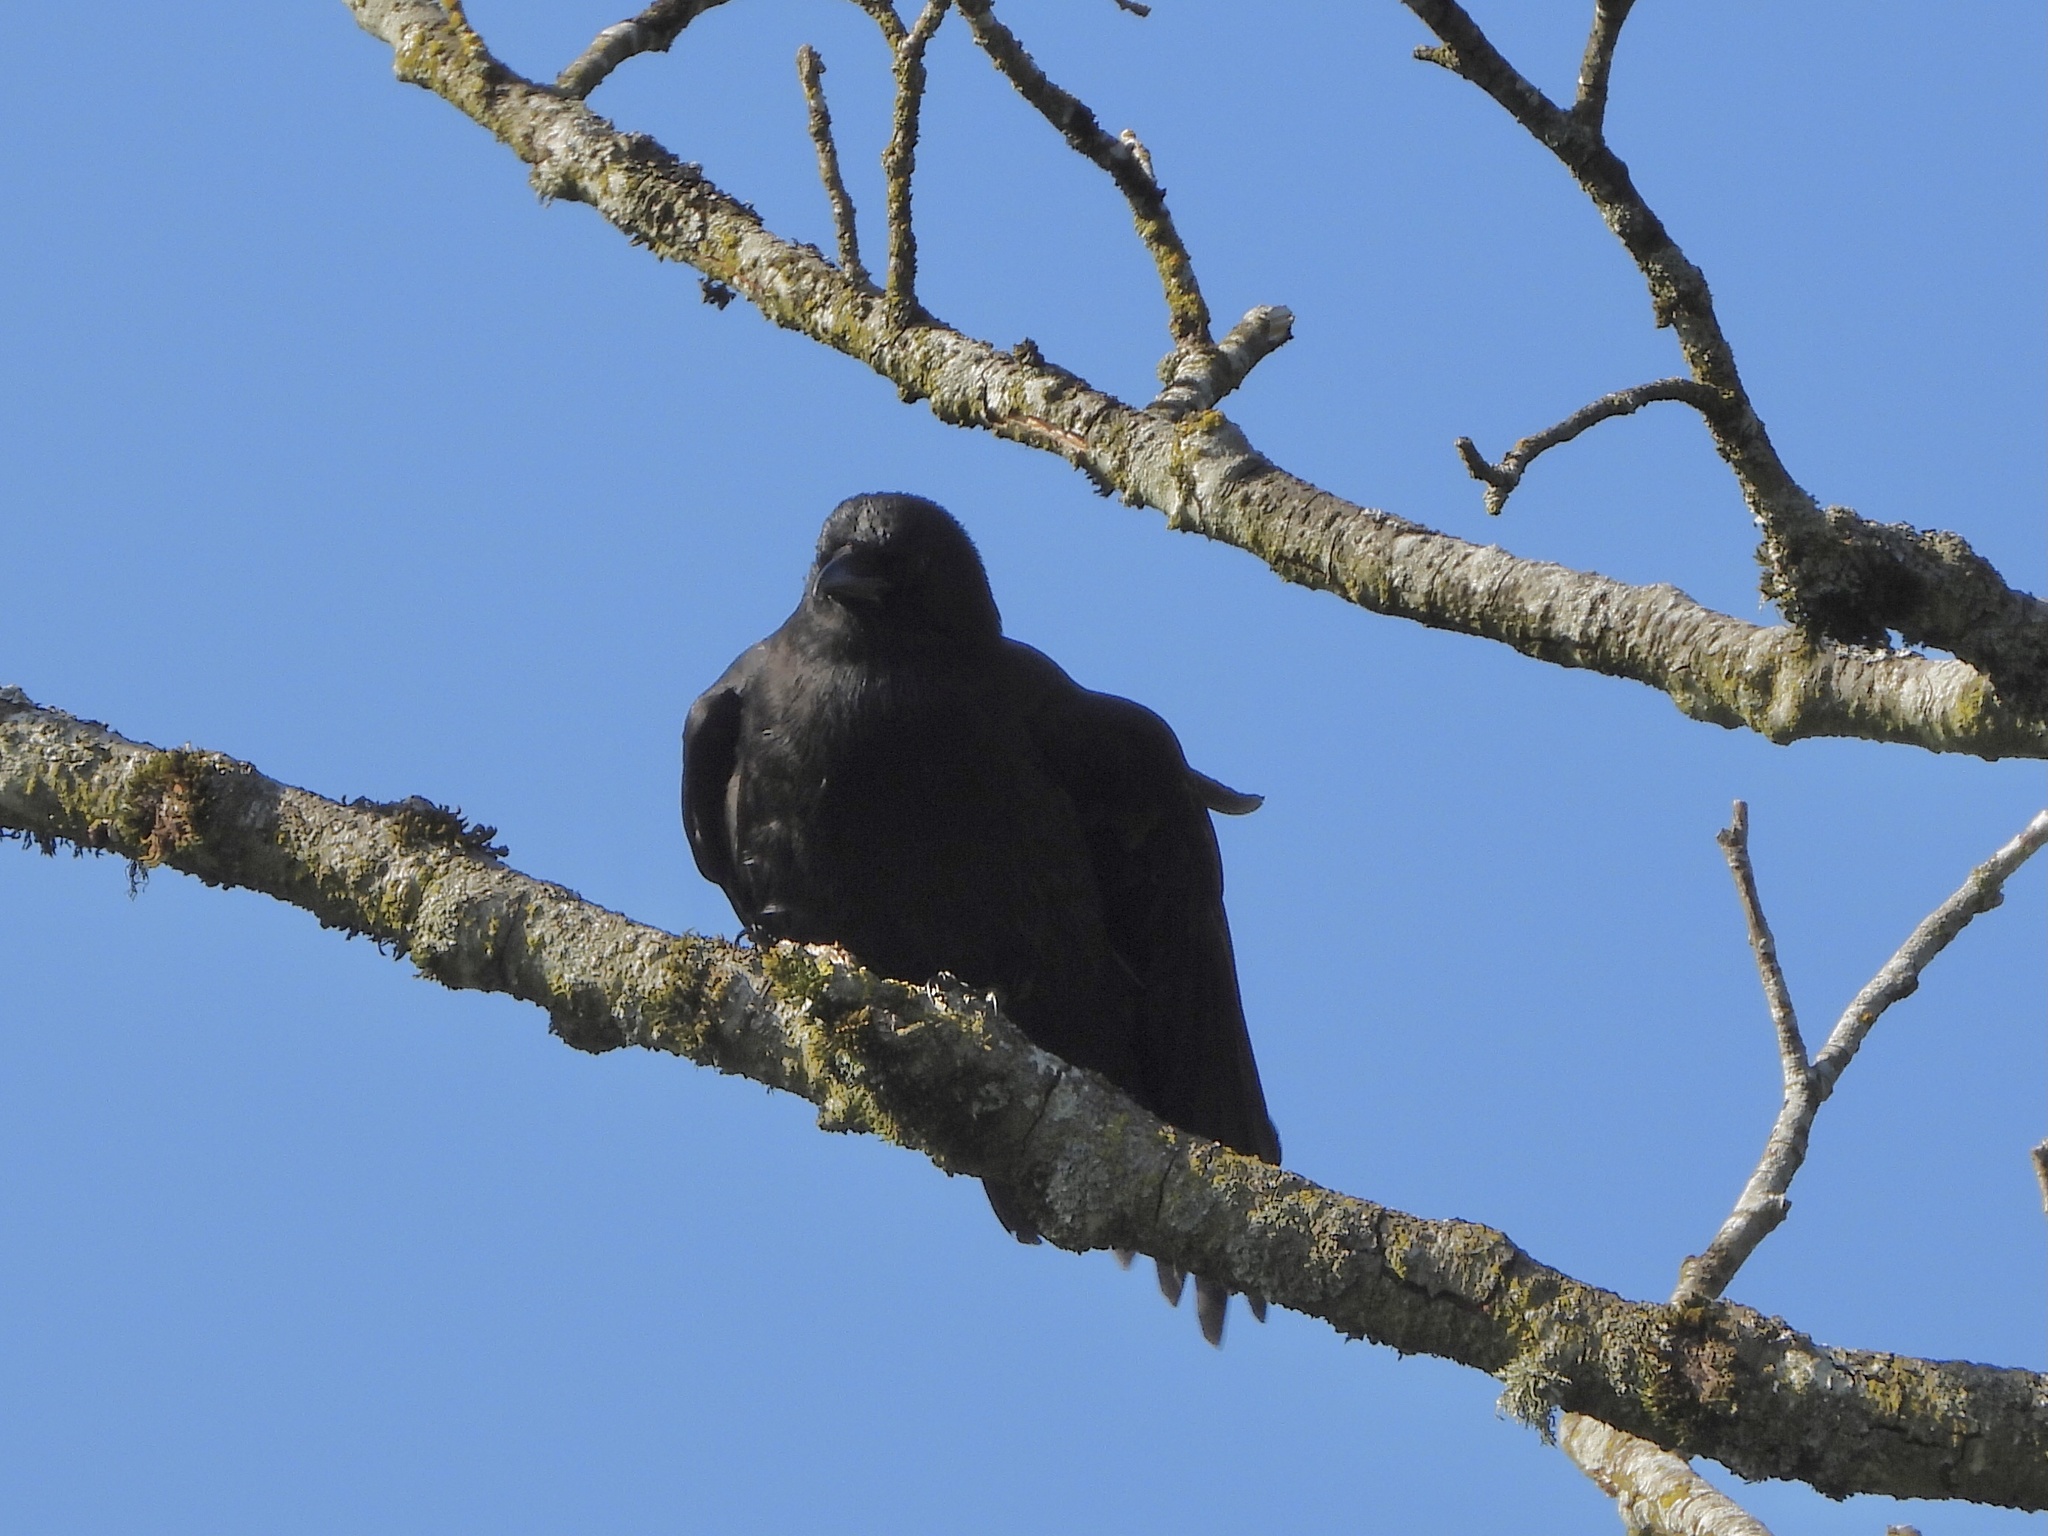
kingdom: Animalia
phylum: Chordata
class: Aves
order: Passeriformes
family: Corvidae
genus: Corvus
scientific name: Corvus brachyrhynchos
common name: American crow
